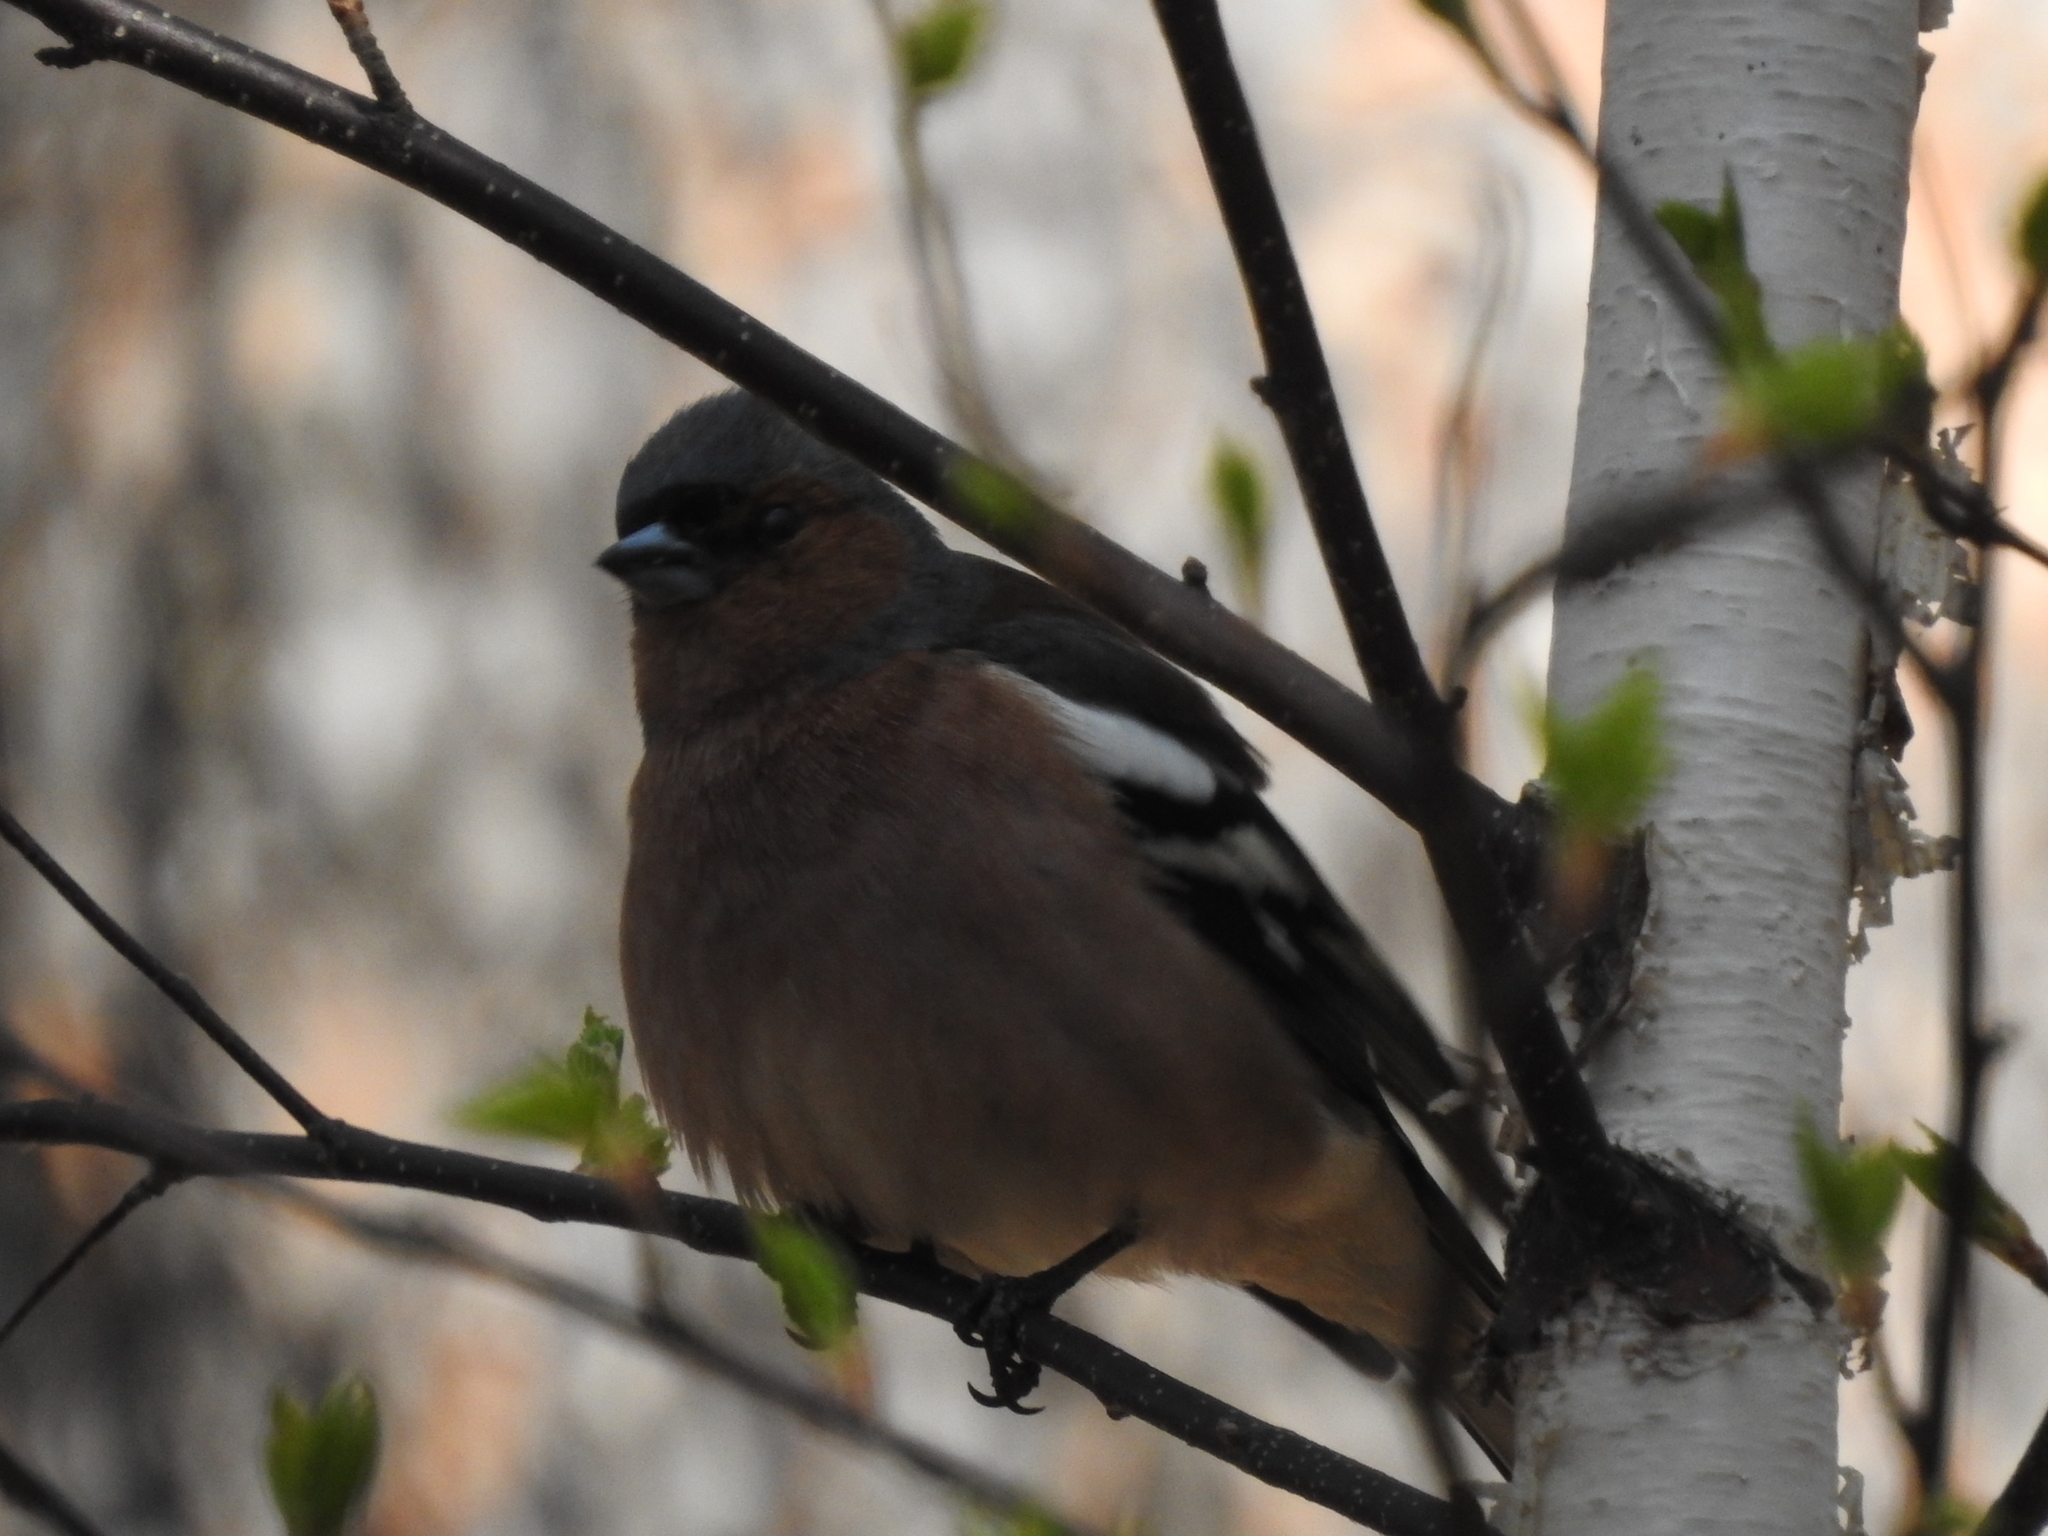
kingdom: Animalia
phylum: Chordata
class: Aves
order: Passeriformes
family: Fringillidae
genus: Fringilla
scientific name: Fringilla coelebs
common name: Common chaffinch
